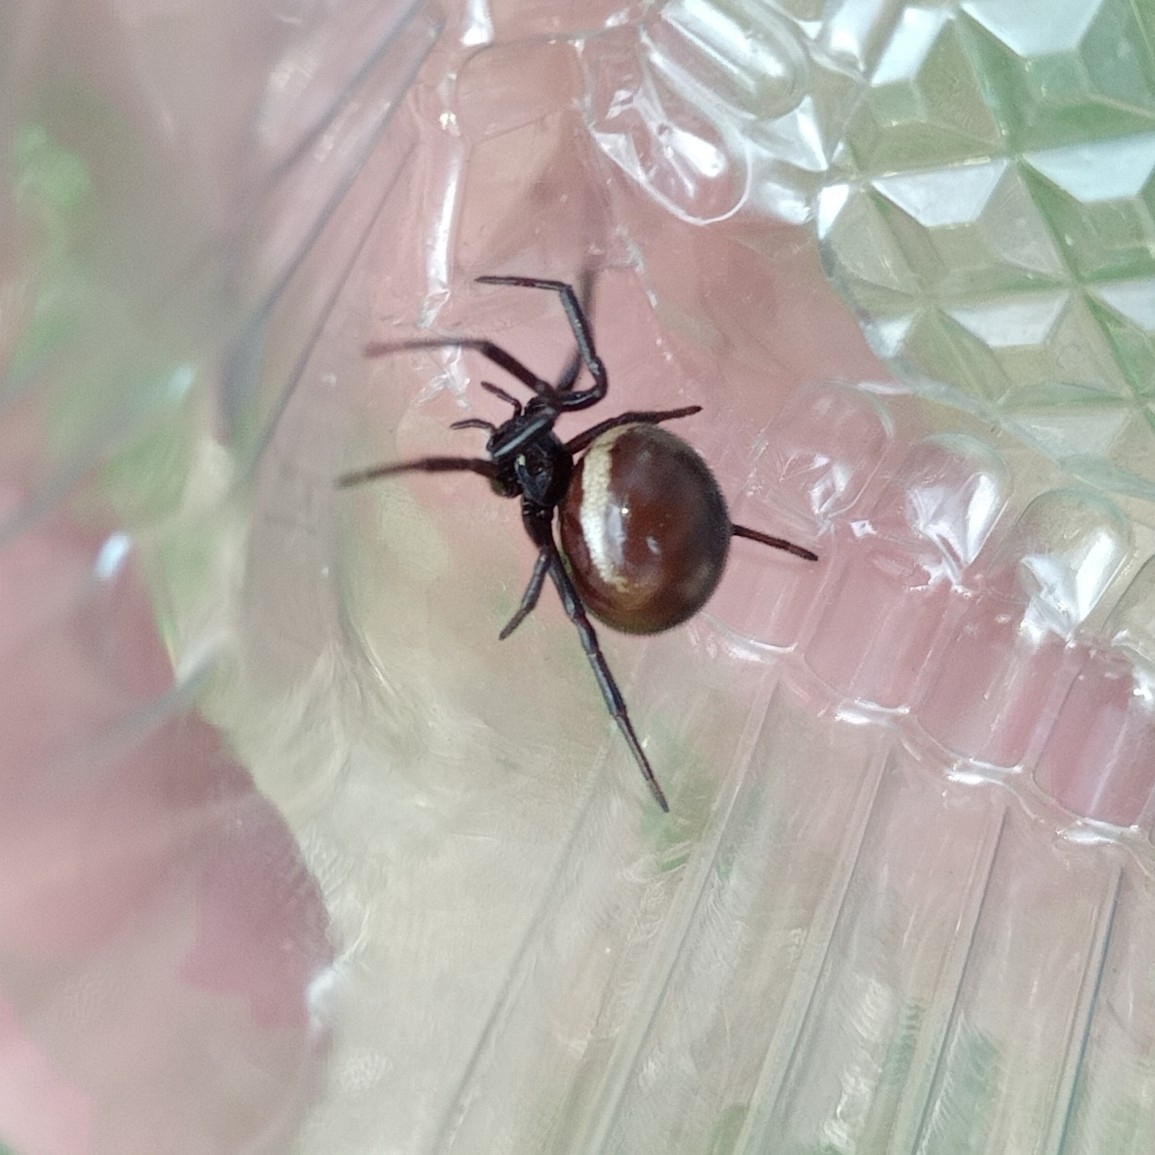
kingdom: Animalia
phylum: Arthropoda
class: Arachnida
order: Araneae
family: Theridiidae
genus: Steatoda
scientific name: Steatoda paykulliana
